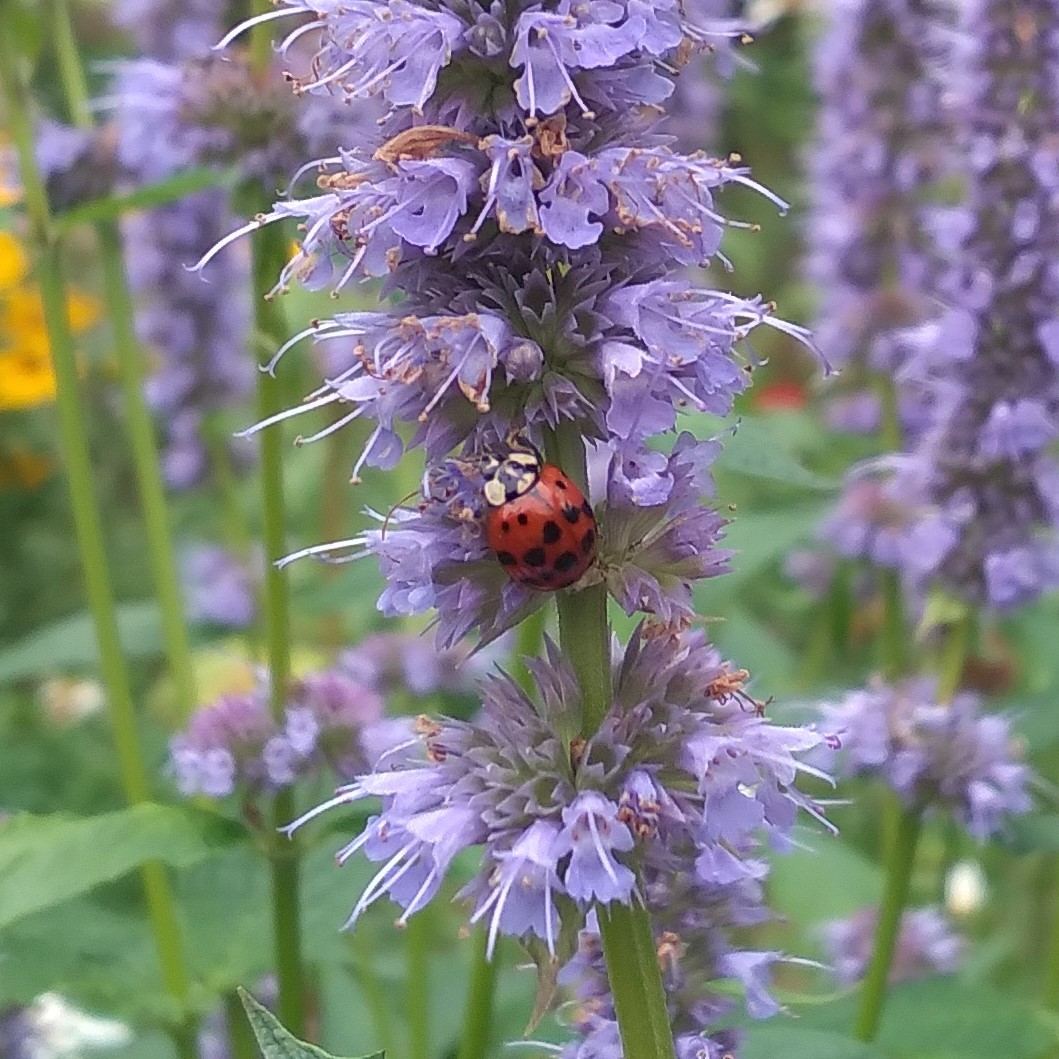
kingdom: Animalia
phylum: Arthropoda
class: Insecta
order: Coleoptera
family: Coccinellidae
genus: Harmonia
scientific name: Harmonia axyridis
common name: Harlequin ladybird
